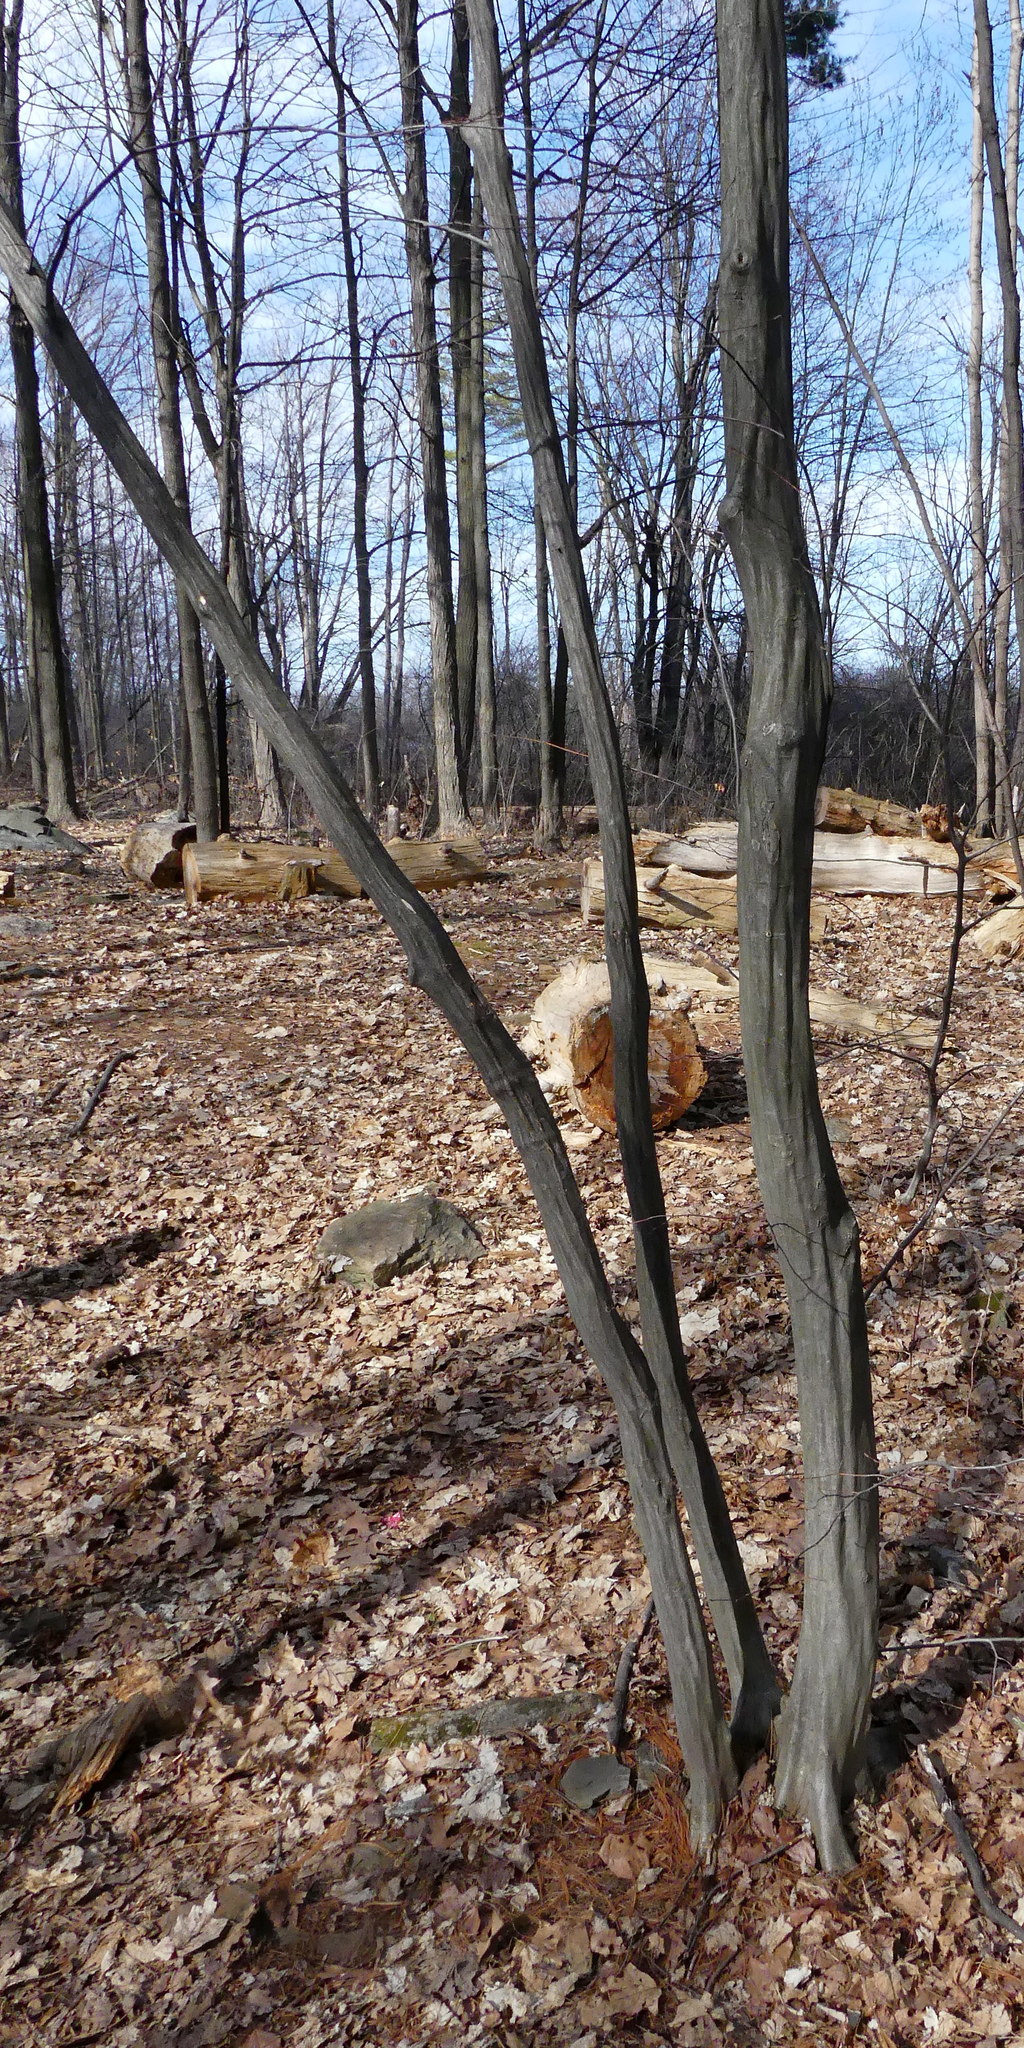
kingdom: Plantae
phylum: Tracheophyta
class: Magnoliopsida
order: Fagales
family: Betulaceae
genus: Carpinus
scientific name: Carpinus caroliniana
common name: American hornbeam
